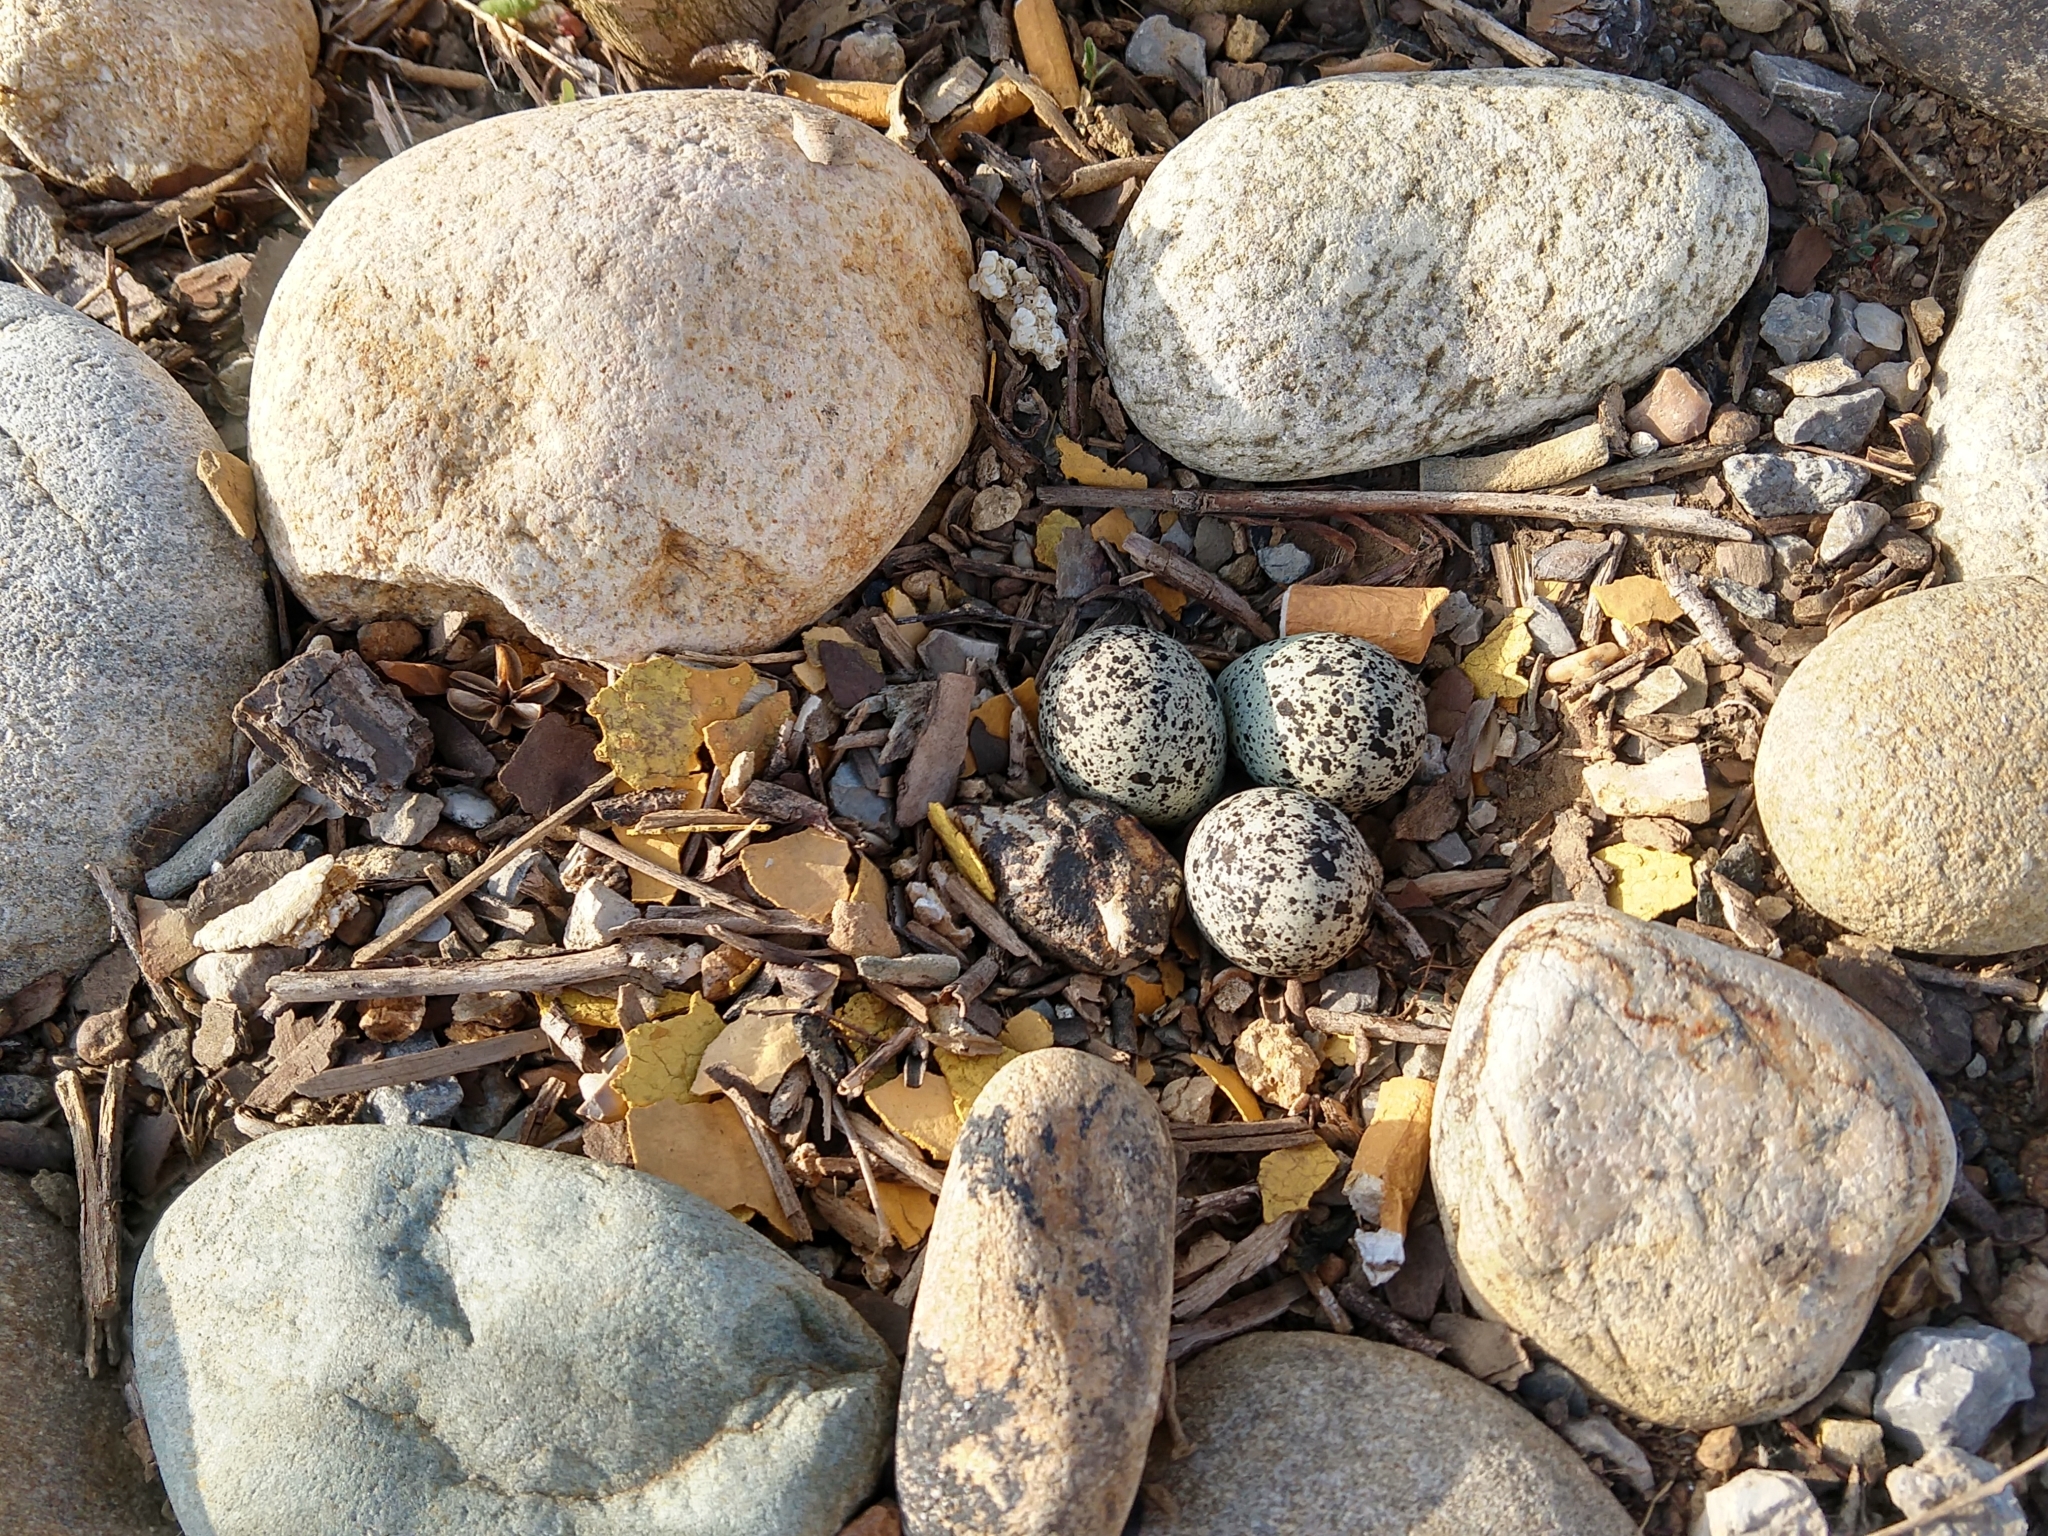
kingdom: Animalia
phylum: Chordata
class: Aves
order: Charadriiformes
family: Charadriidae
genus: Charadrius
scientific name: Charadrius vociferus
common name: Killdeer
